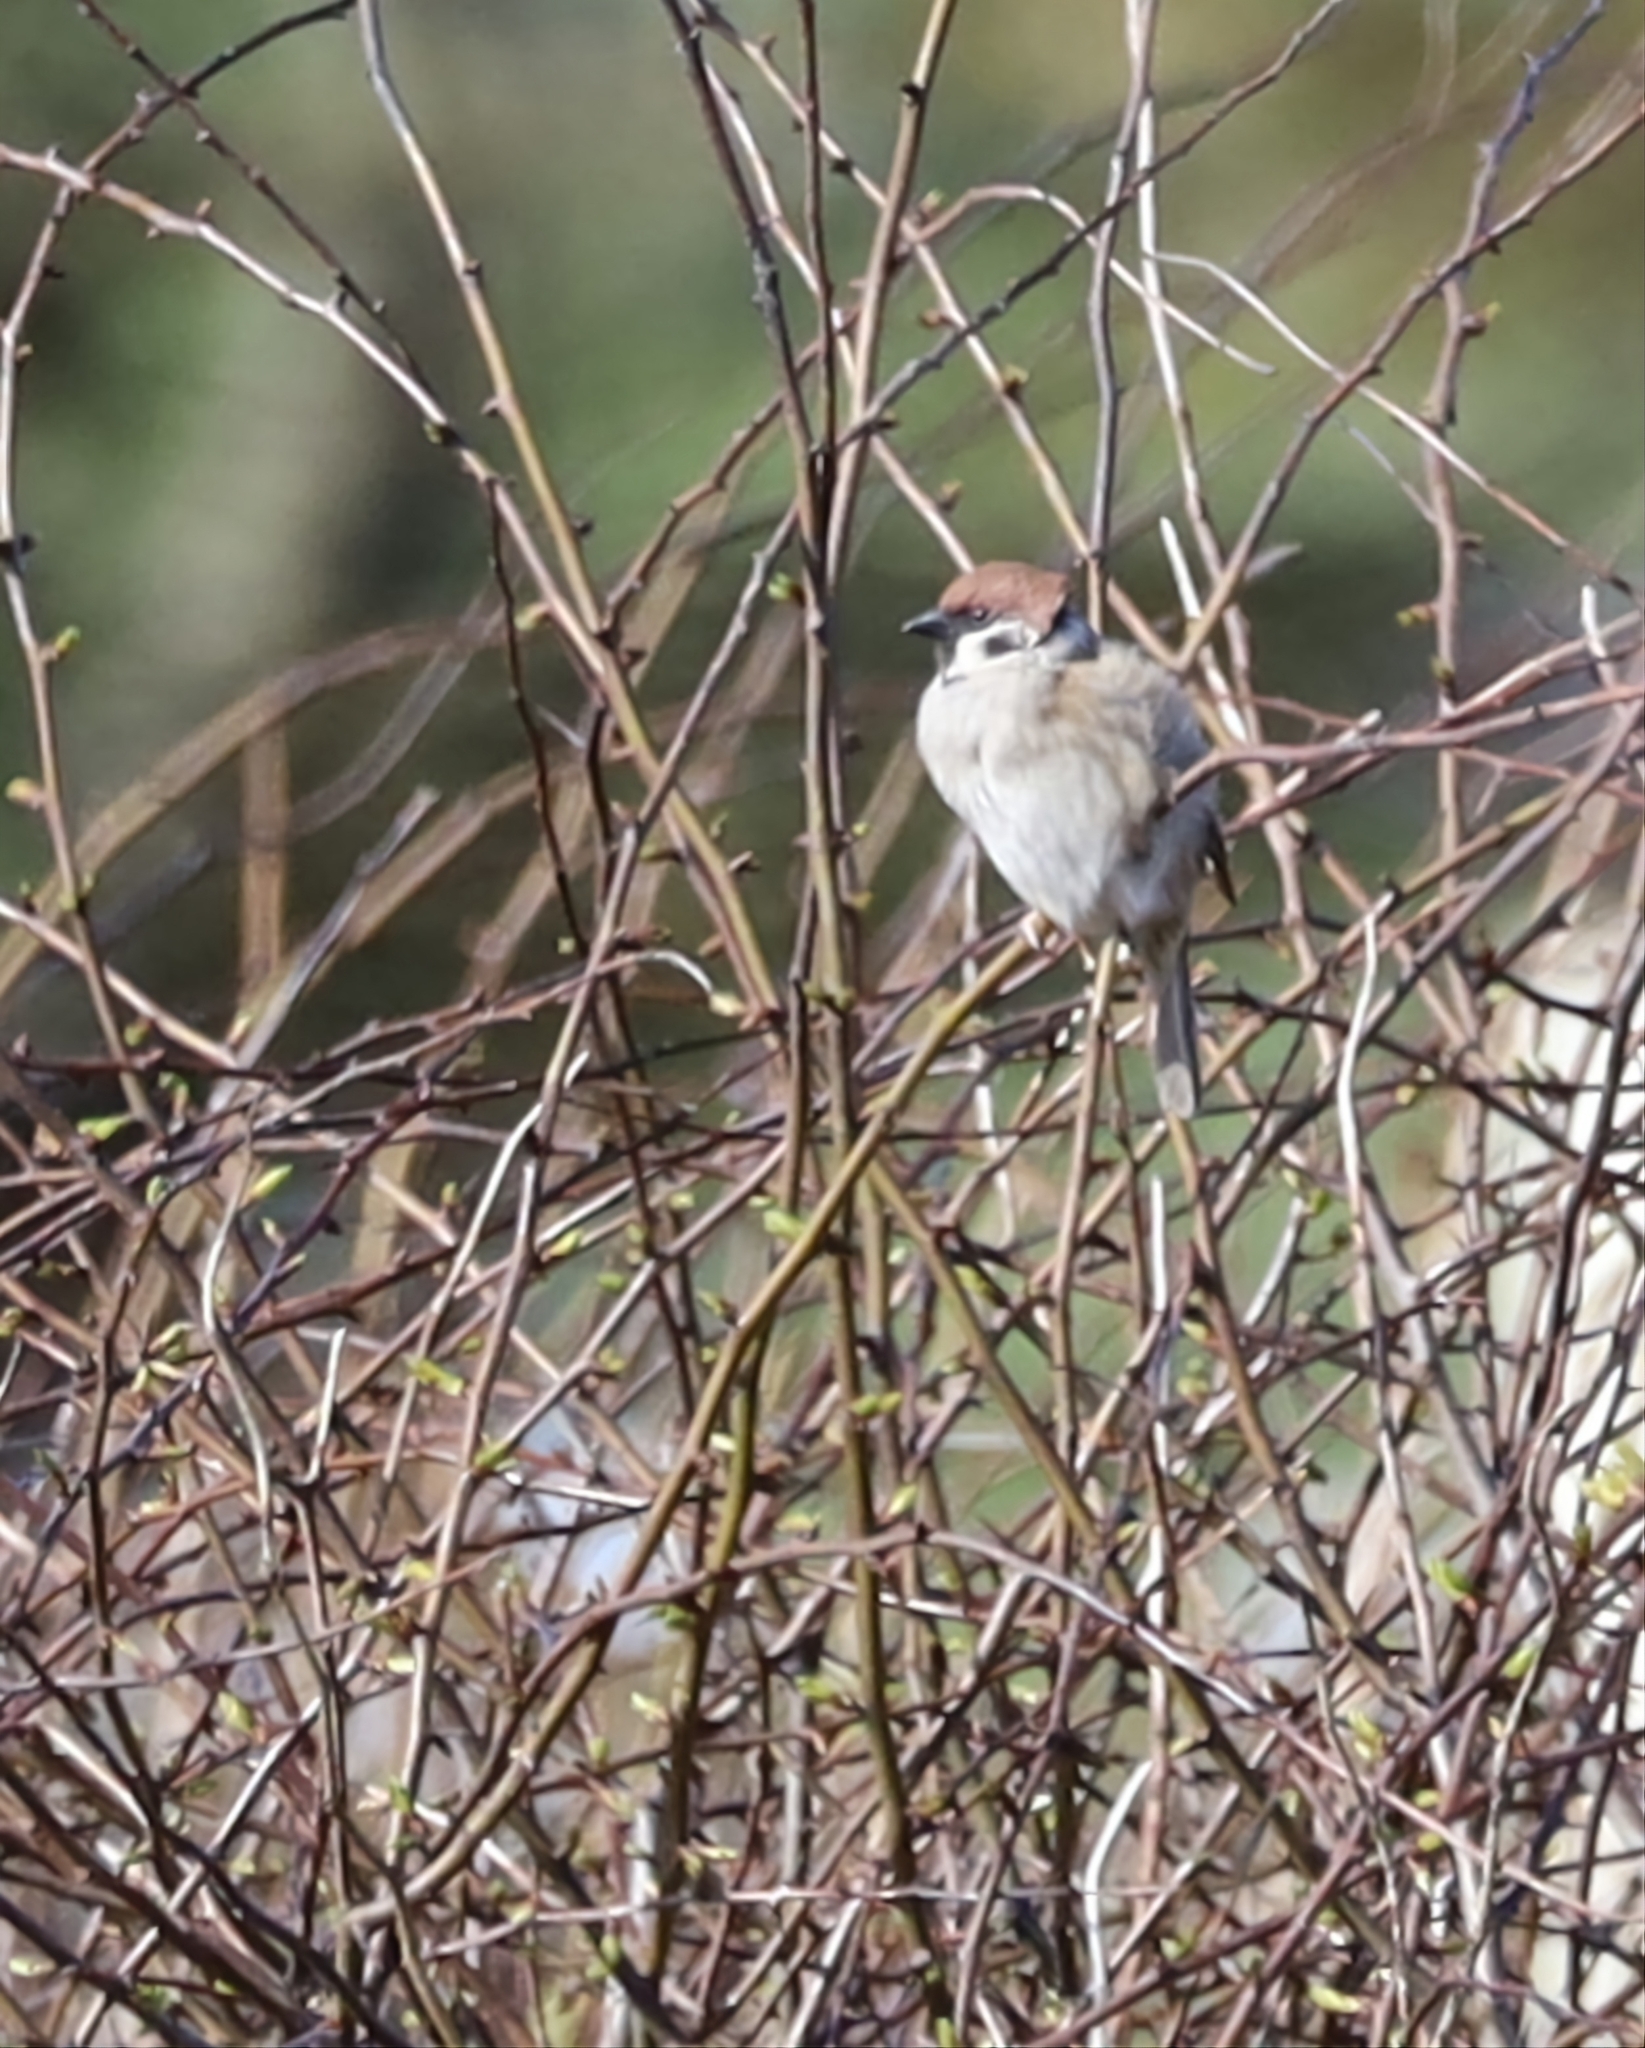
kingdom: Animalia
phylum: Chordata
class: Aves
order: Passeriformes
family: Passeridae
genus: Passer
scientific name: Passer montanus
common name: Eurasian tree sparrow
